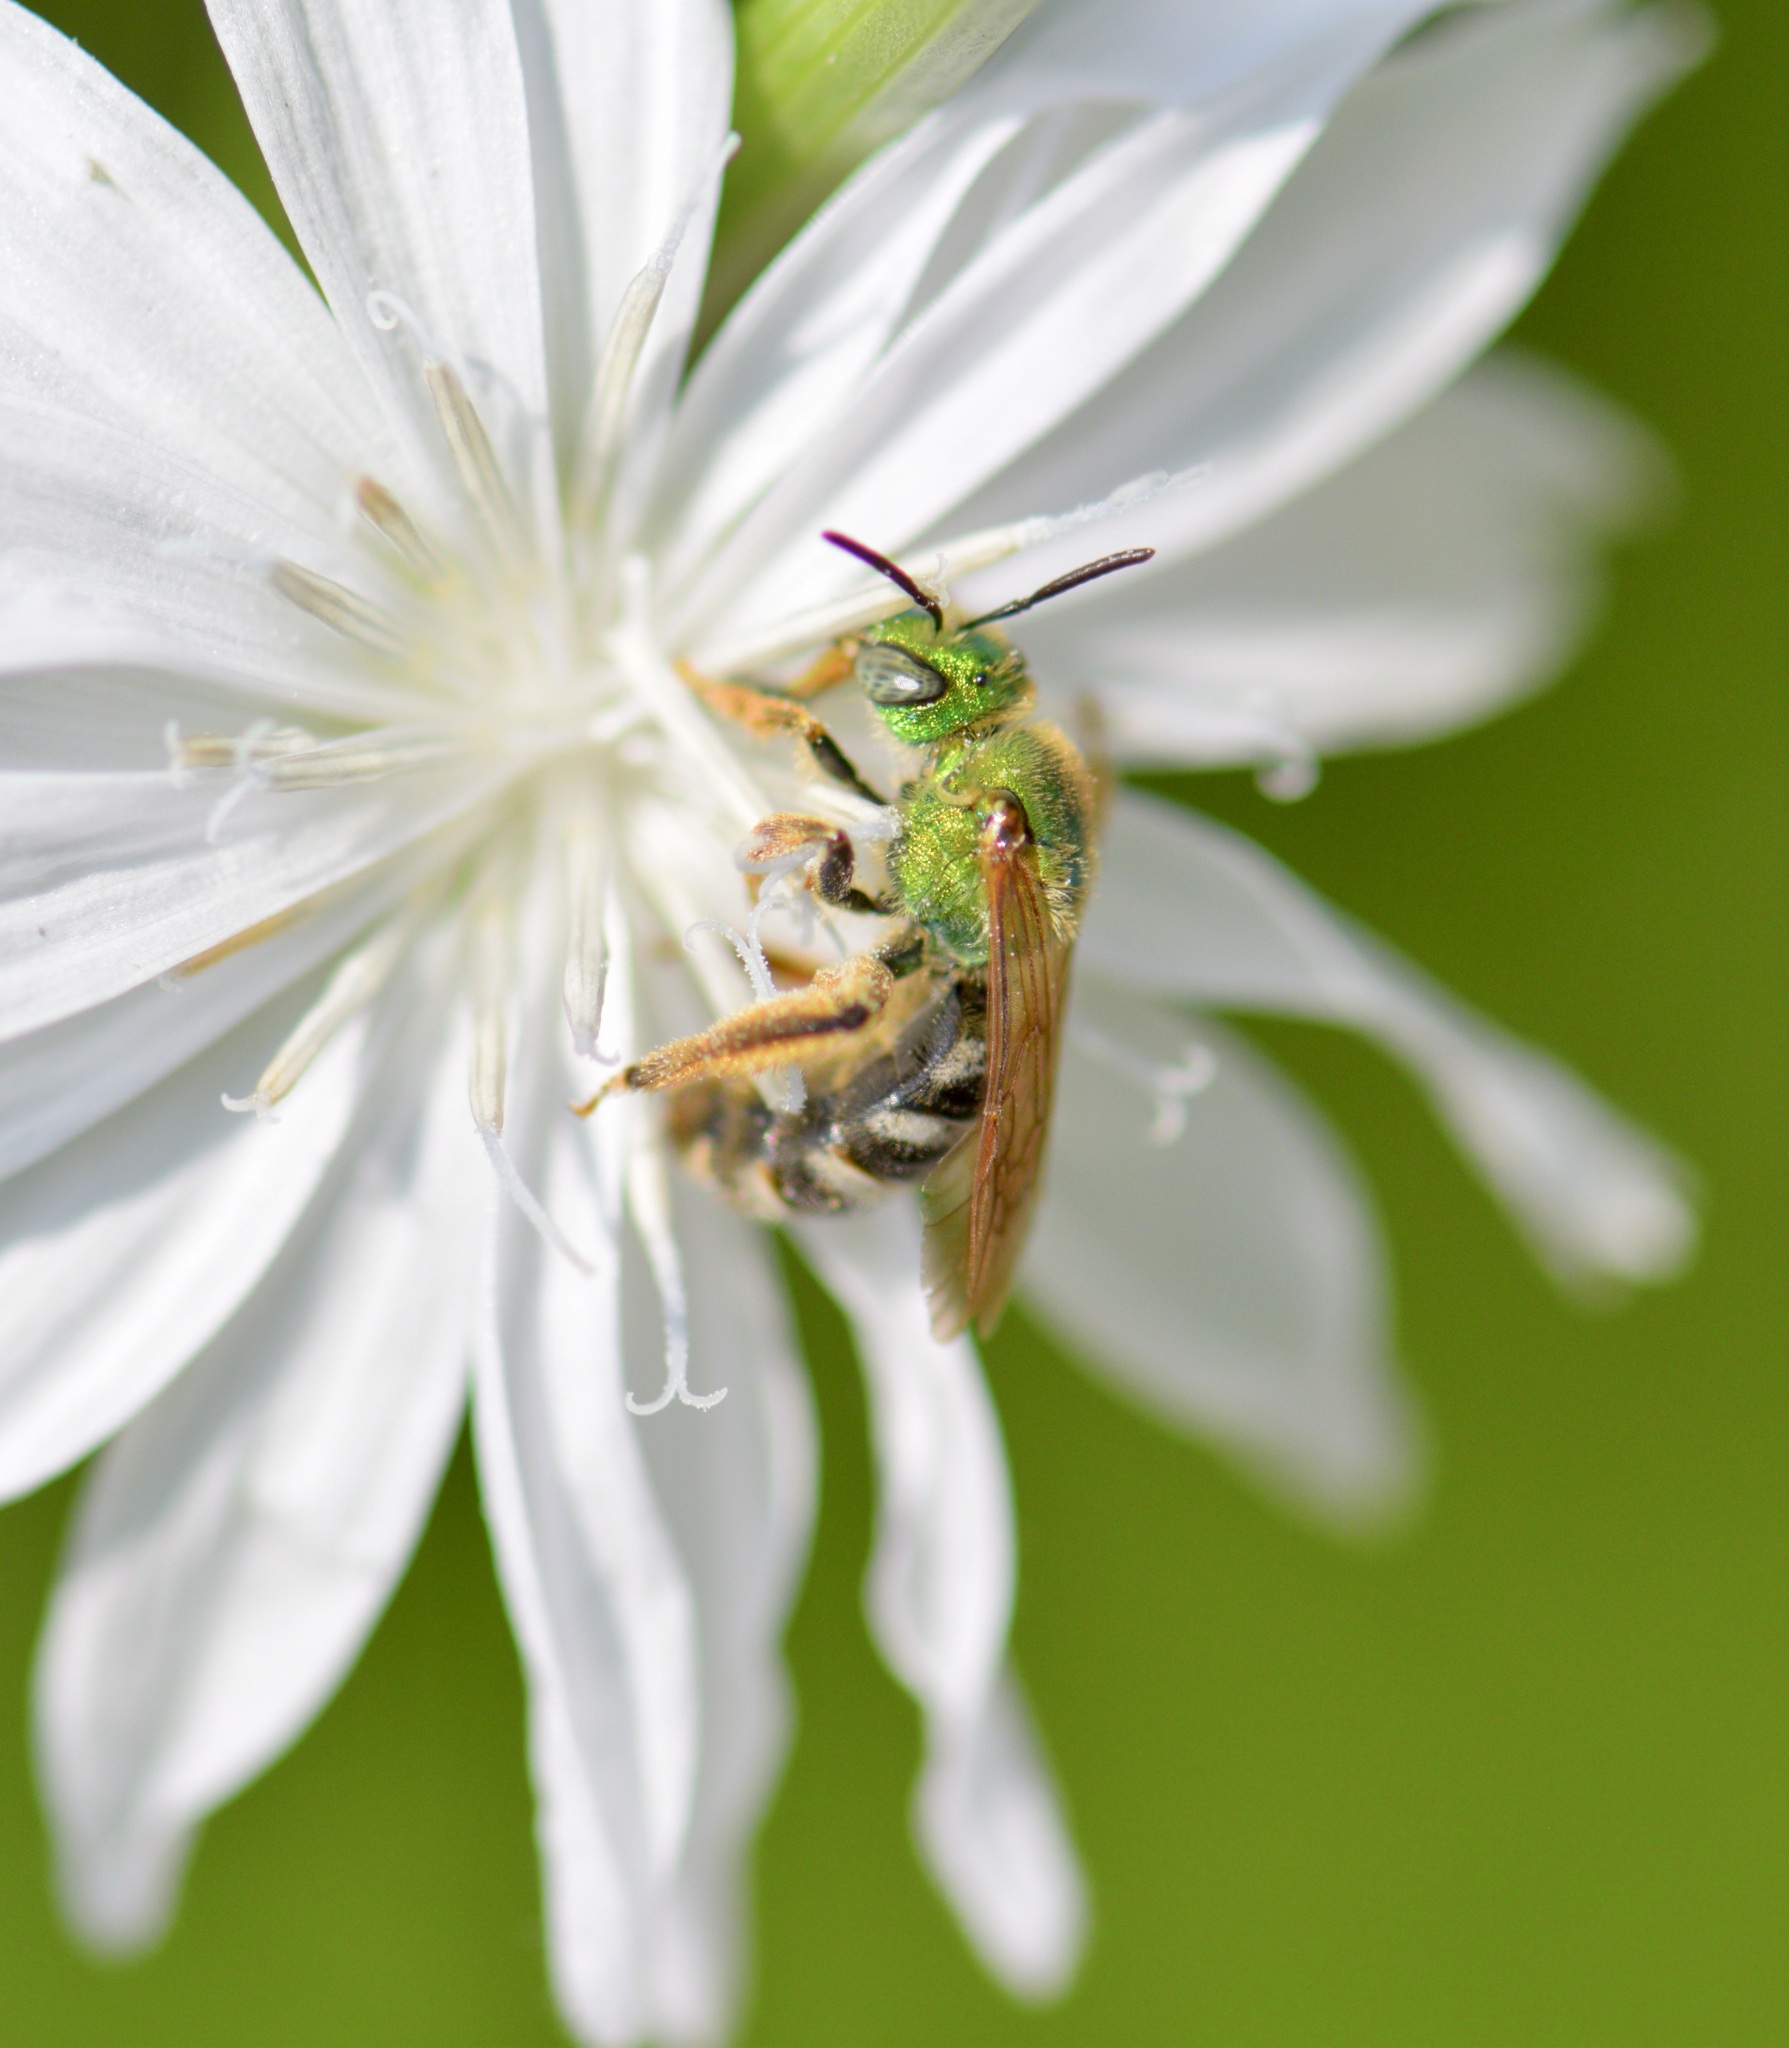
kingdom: Animalia
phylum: Arthropoda
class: Insecta
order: Hymenoptera
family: Halictidae
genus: Agapostemon
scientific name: Agapostemon virescens
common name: Bicolored striped sweat bee
